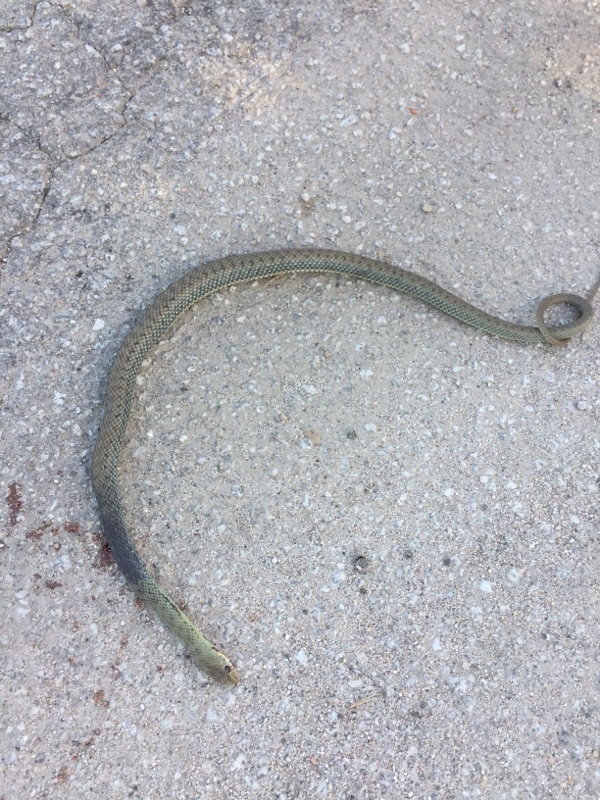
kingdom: Animalia
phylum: Chordata
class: Squamata
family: Psammophiidae
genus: Malpolon
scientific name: Malpolon monspessulanus
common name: Montpellier snake
